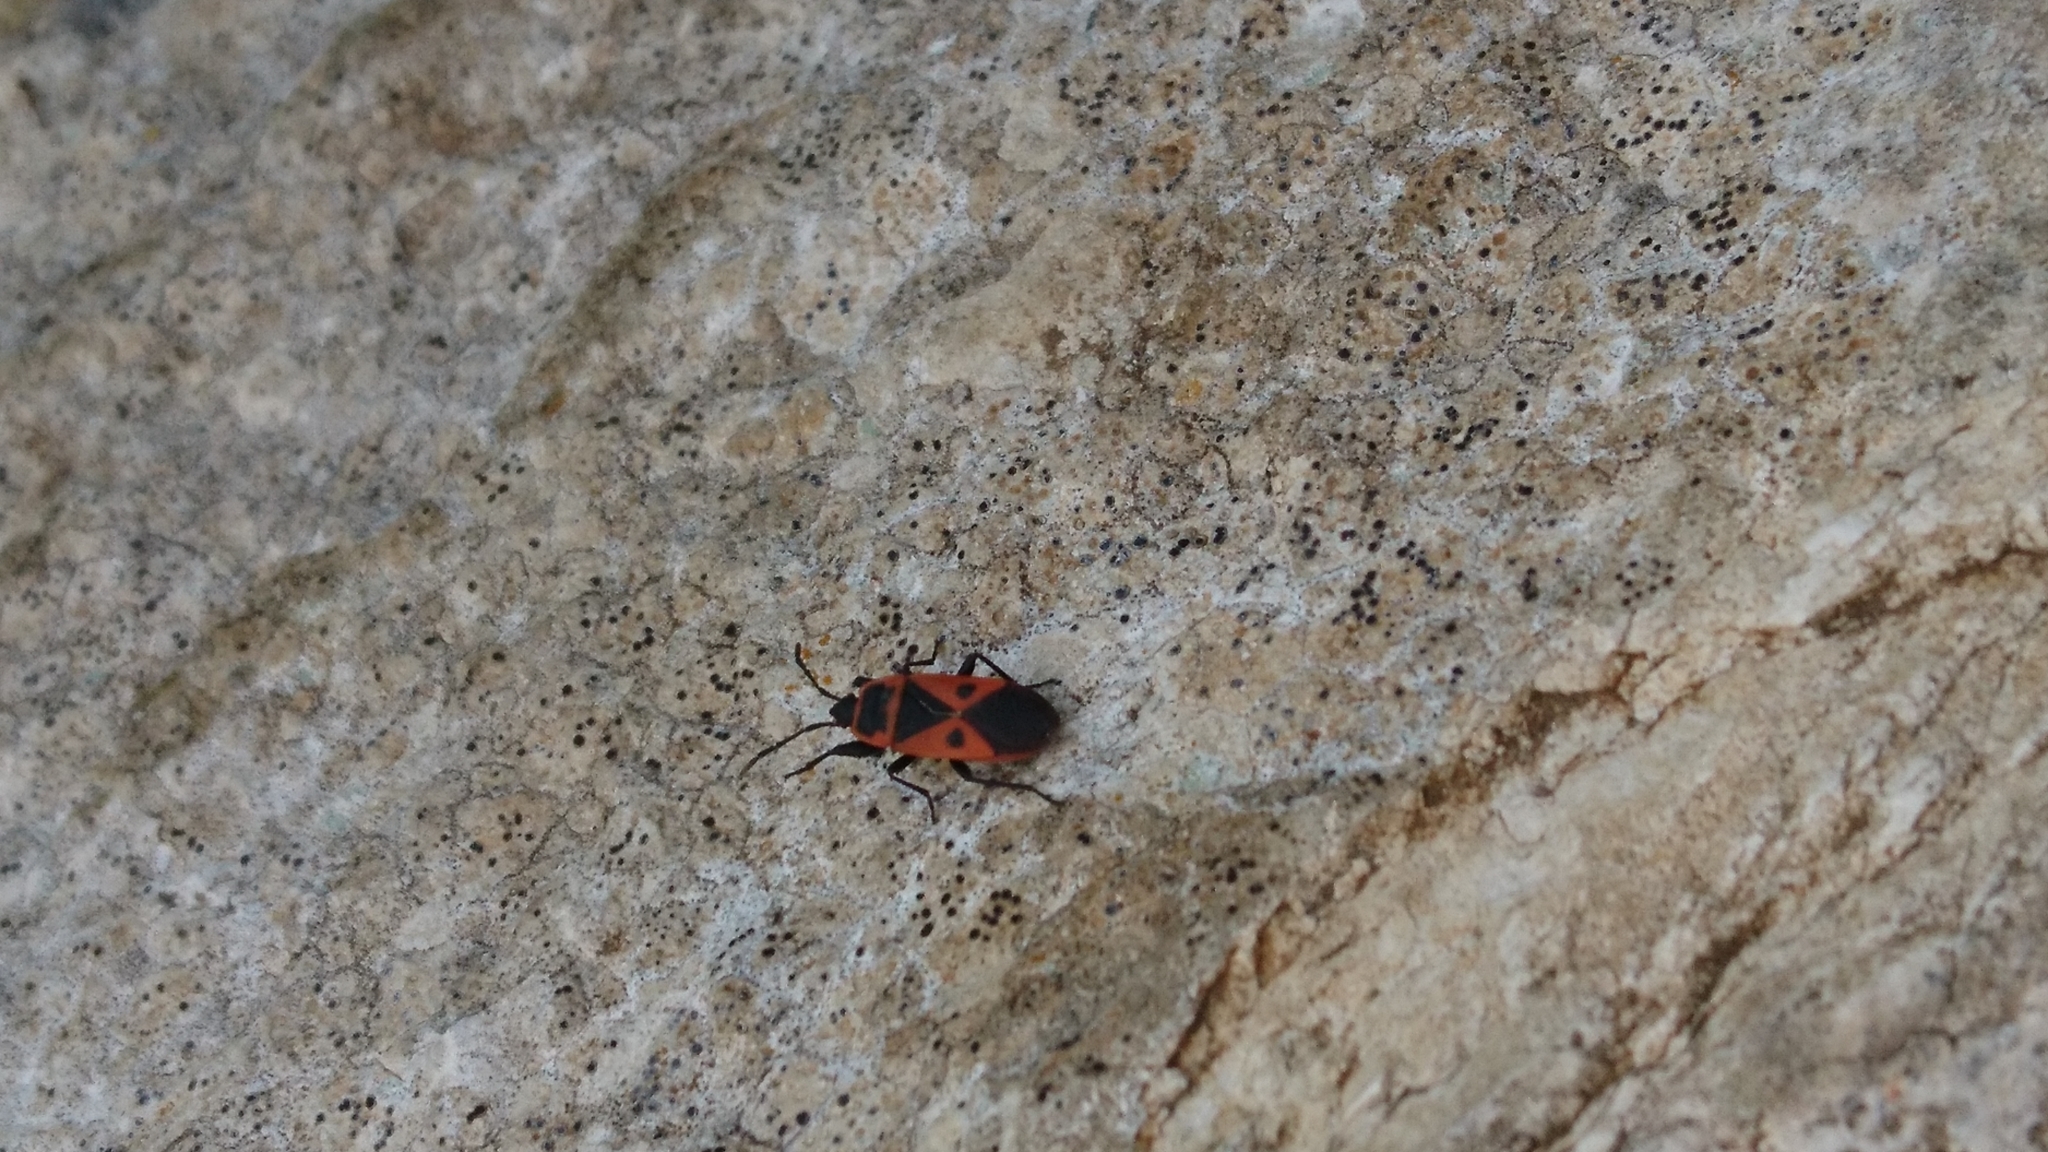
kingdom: Animalia
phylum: Arthropoda
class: Insecta
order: Hemiptera
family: Pyrrhocoridae
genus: Scantius
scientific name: Scantius aegyptius
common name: Red bug
